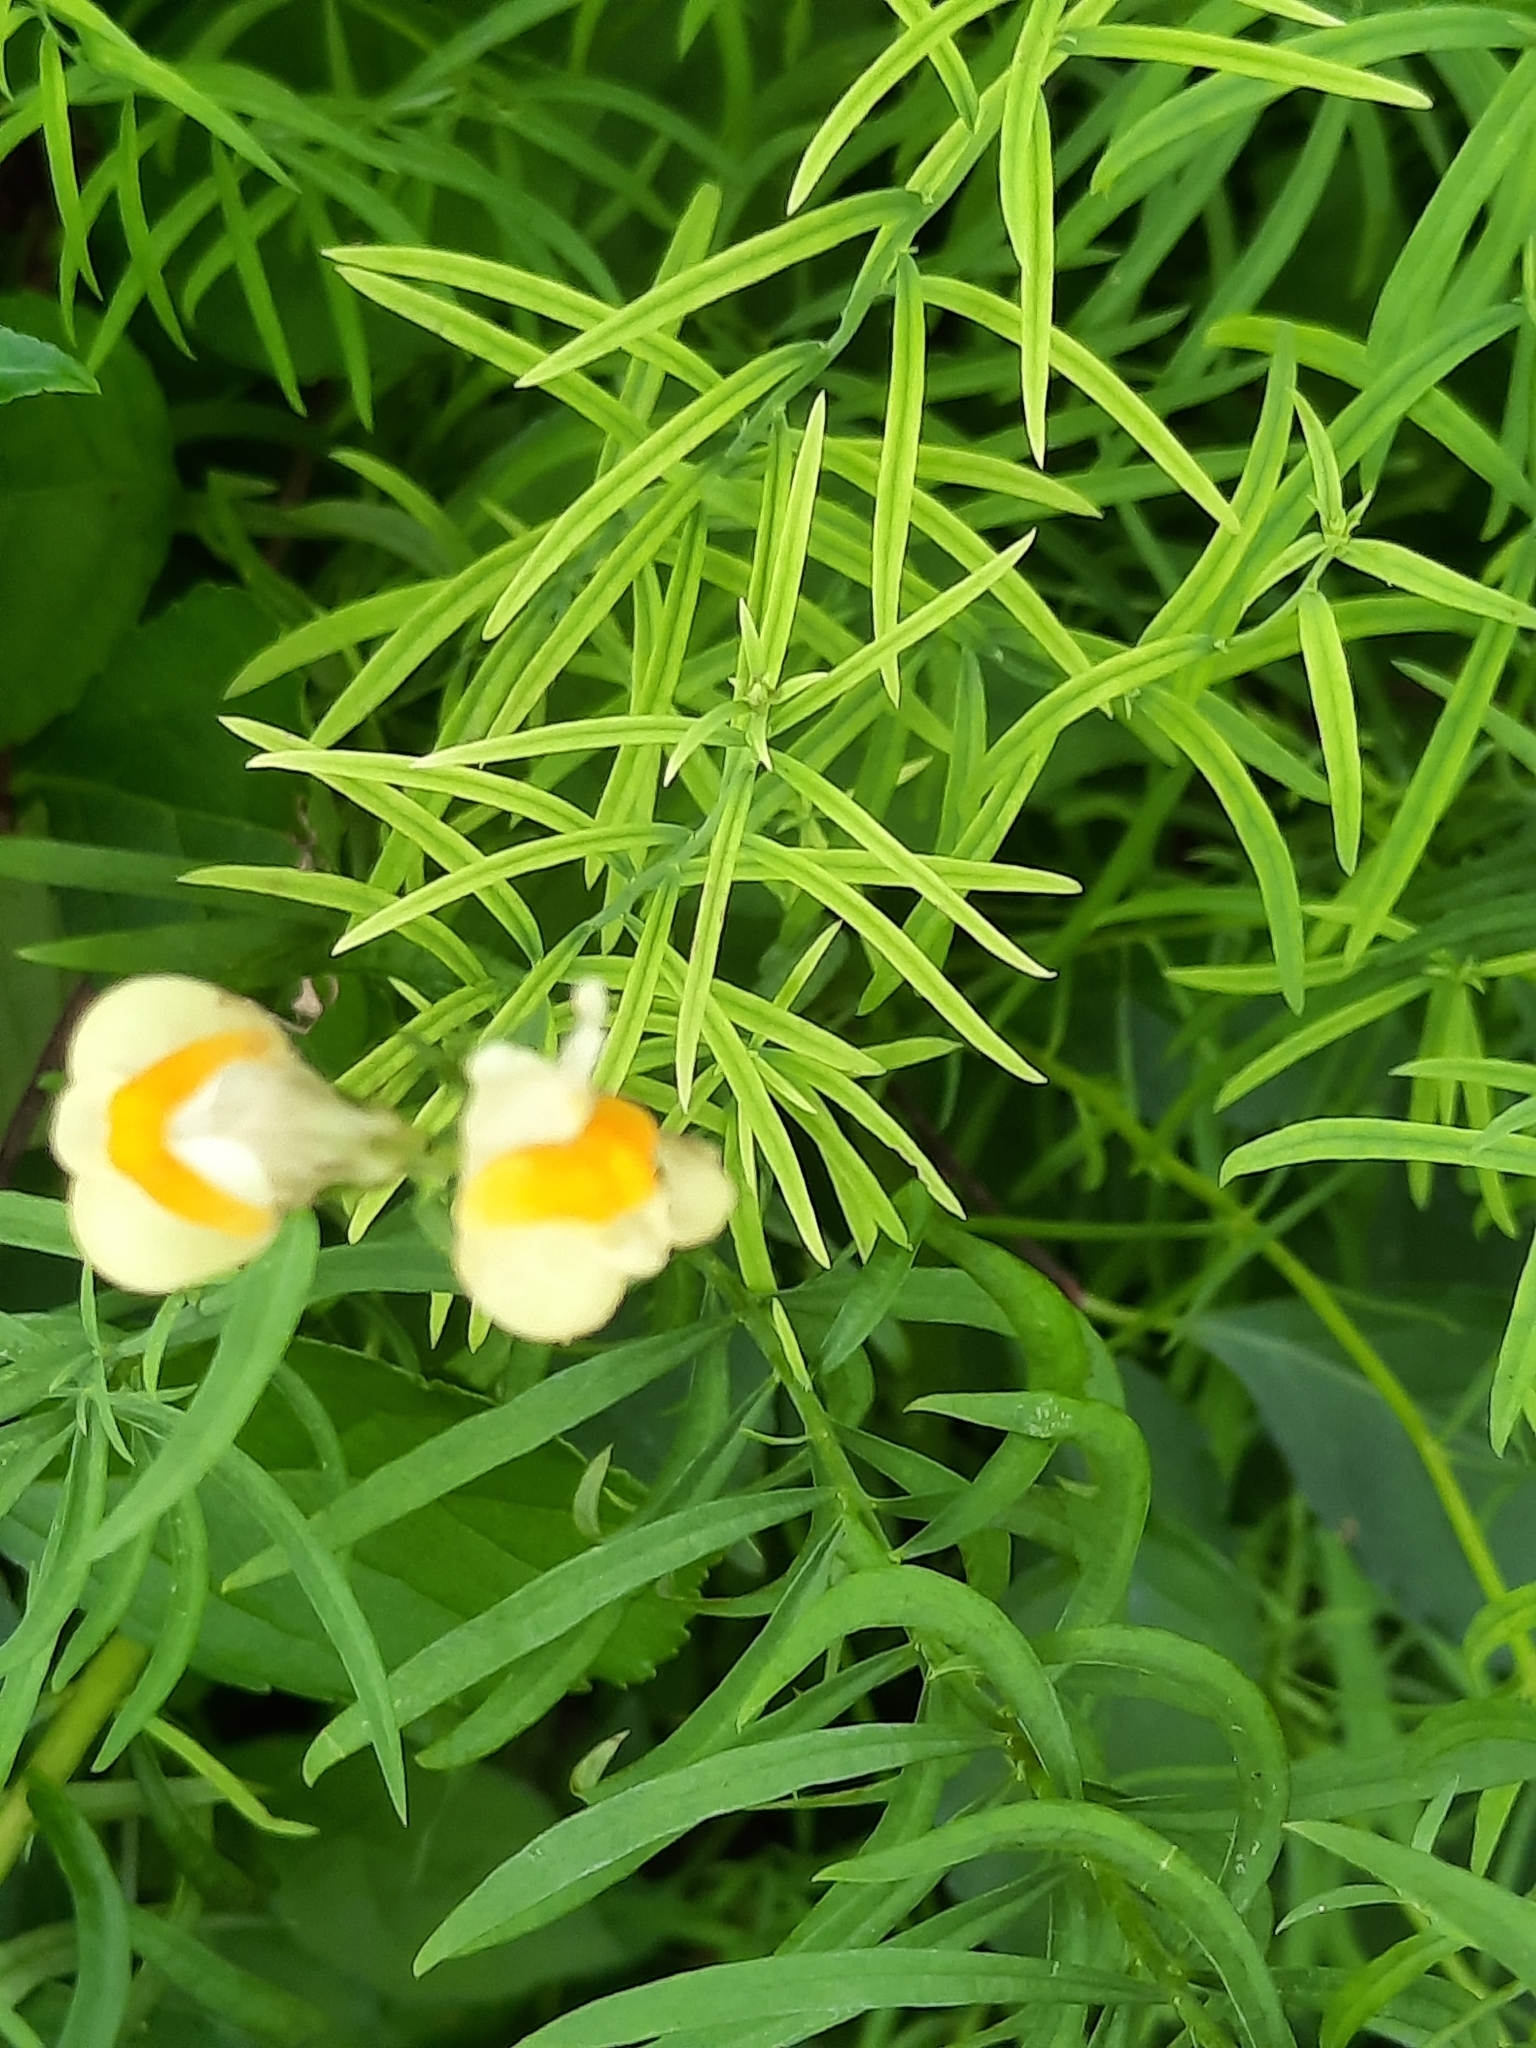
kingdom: Plantae
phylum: Tracheophyta
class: Magnoliopsida
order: Lamiales
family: Plantaginaceae
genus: Linaria
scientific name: Linaria vulgaris
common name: Butter and eggs
